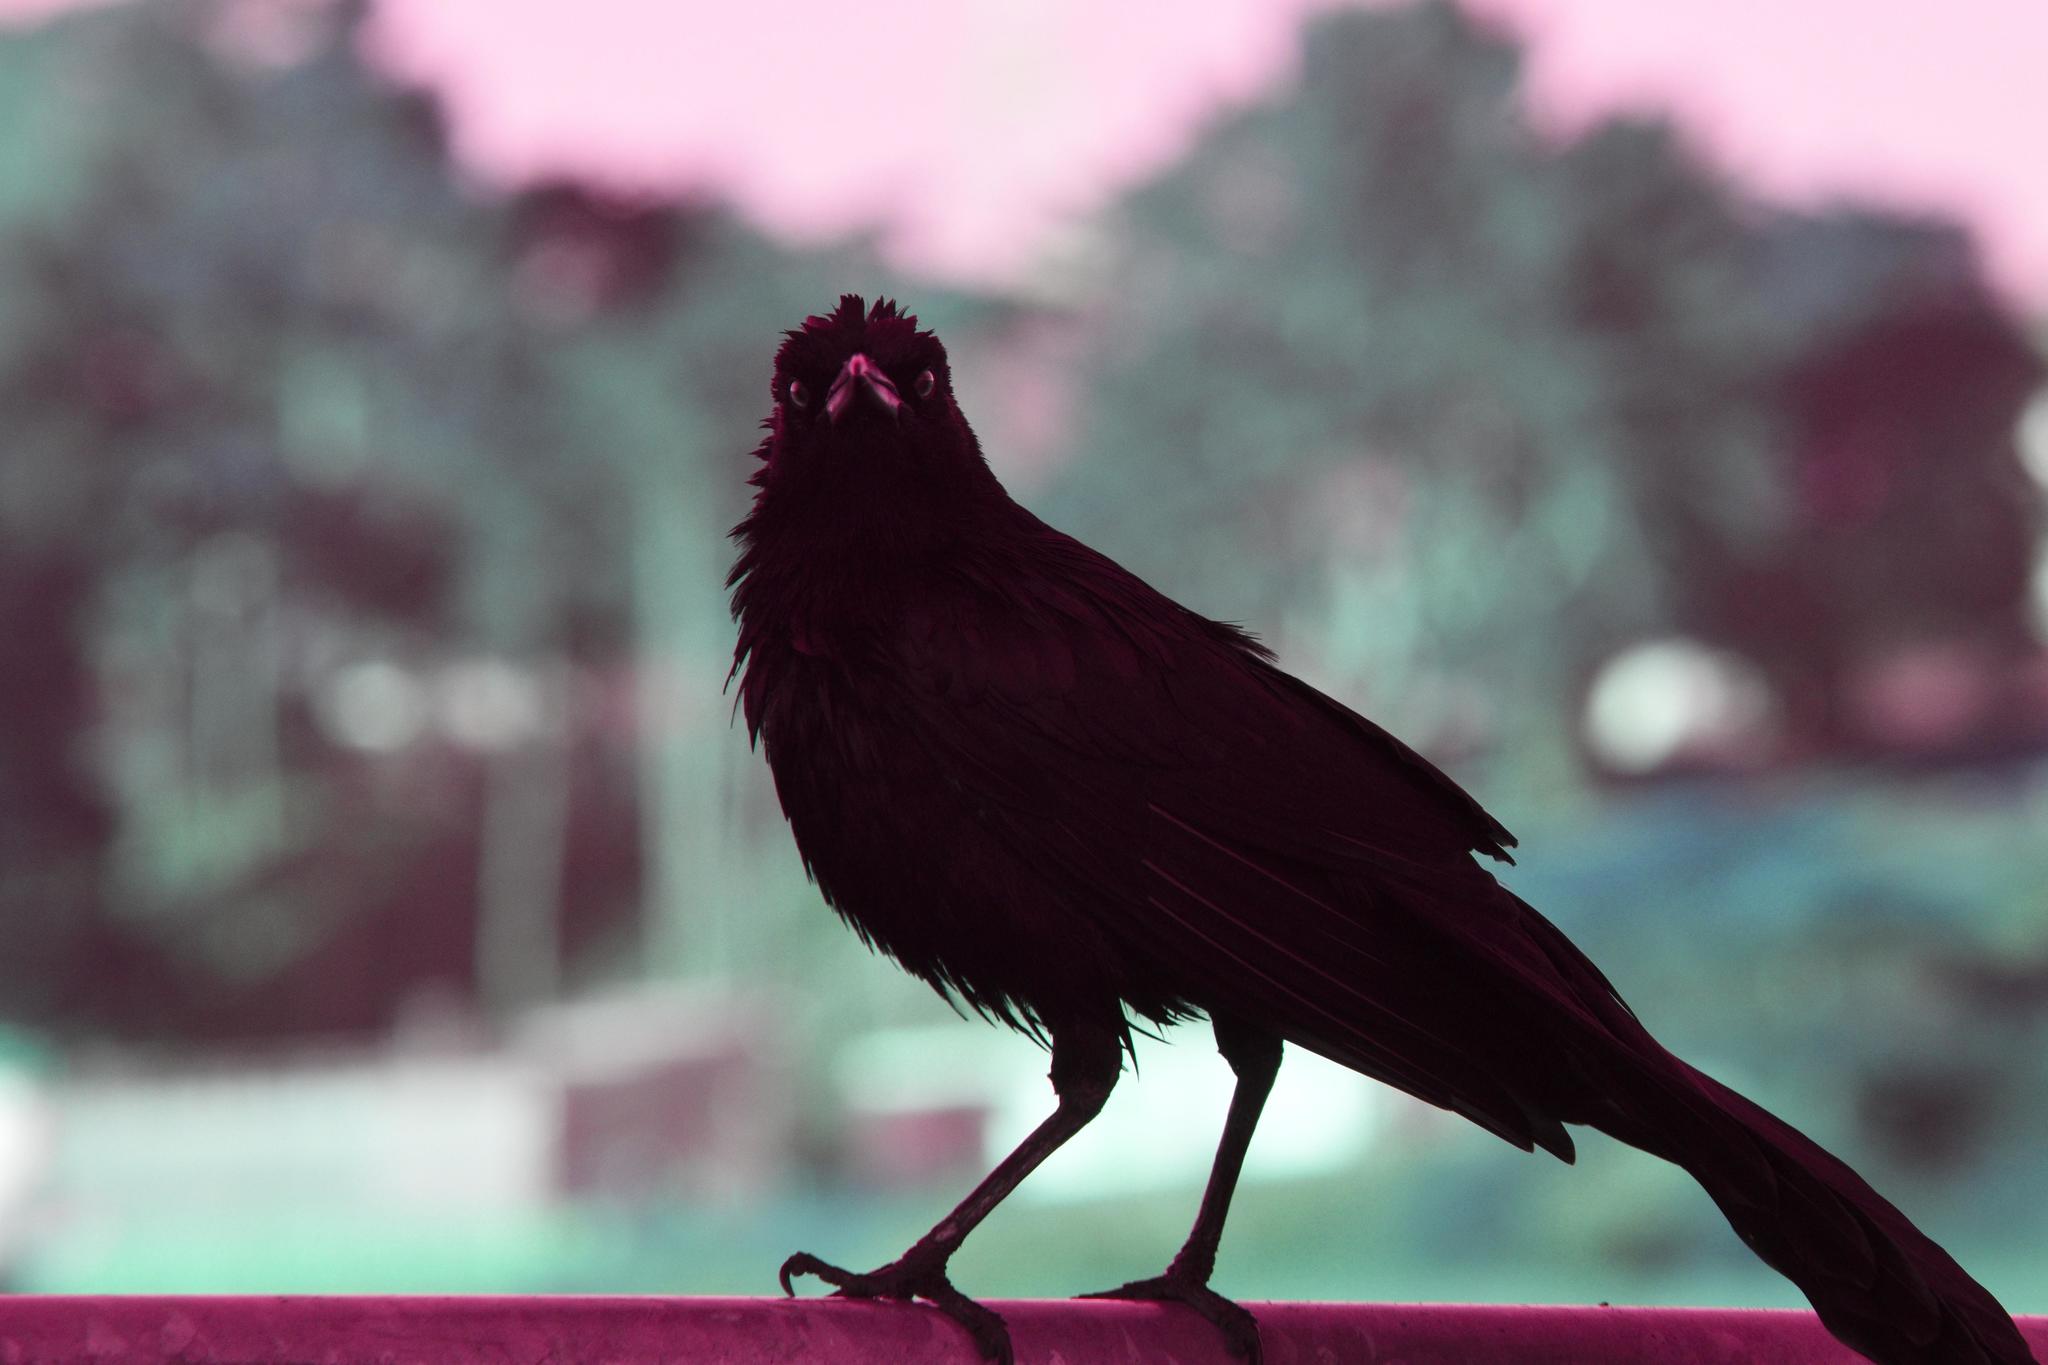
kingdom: Animalia
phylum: Chordata
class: Aves
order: Passeriformes
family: Icteridae
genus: Quiscalus
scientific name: Quiscalus mexicanus
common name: Great-tailed grackle
